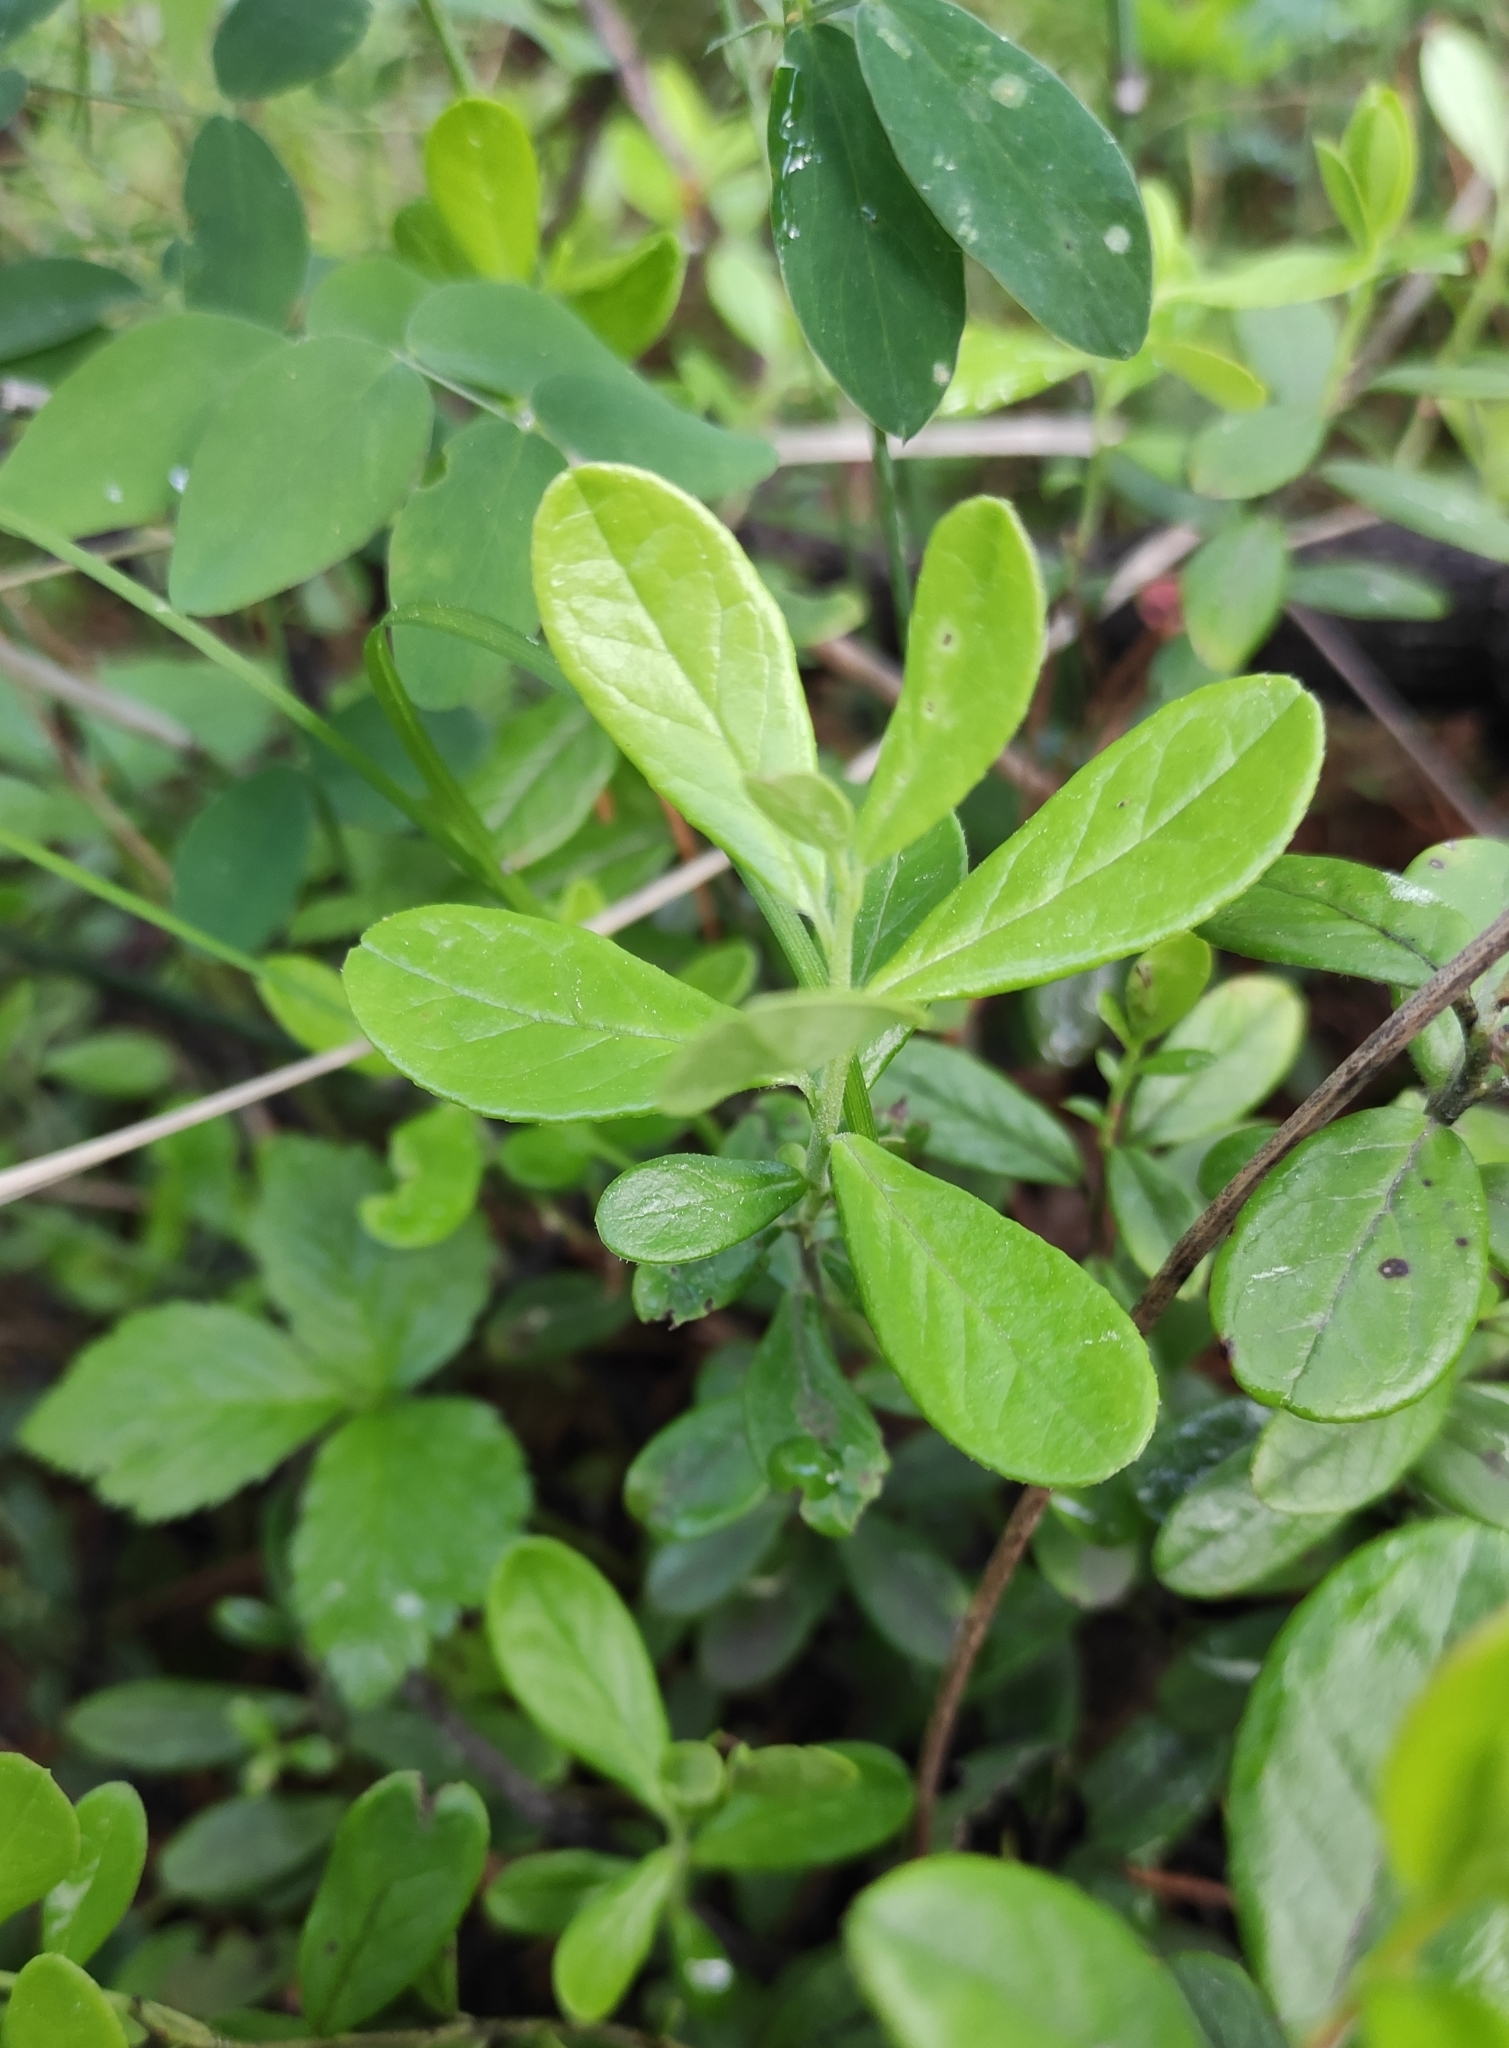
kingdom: Plantae
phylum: Tracheophyta
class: Magnoliopsida
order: Ericales
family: Ericaceae
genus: Vaccinium
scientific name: Vaccinium vitis-idaea
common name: Cowberry
